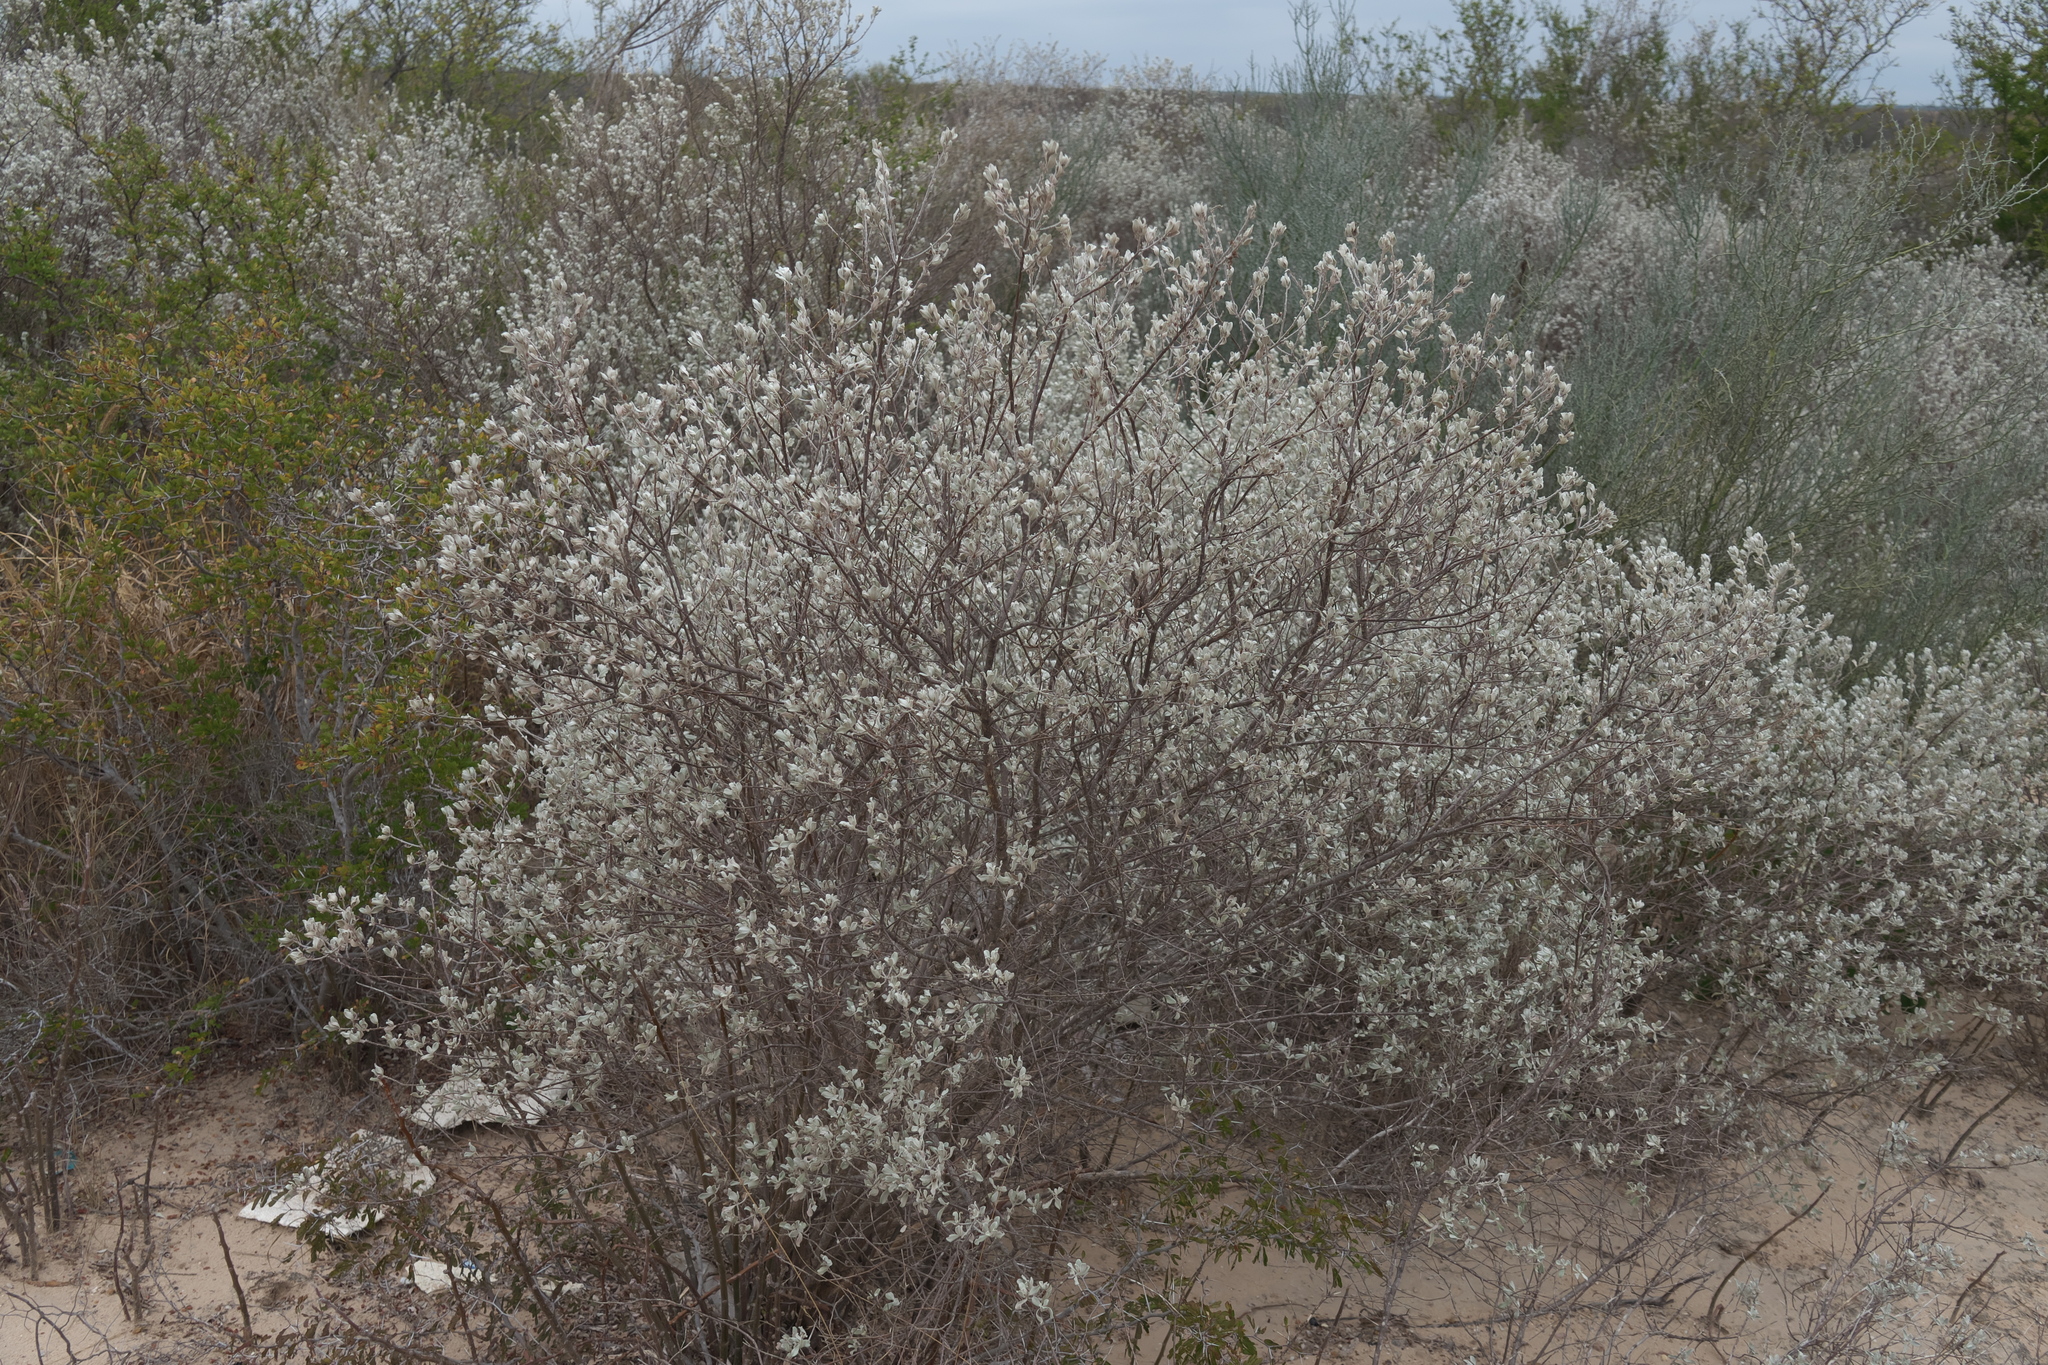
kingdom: Plantae
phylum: Tracheophyta
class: Magnoliopsida
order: Lamiales
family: Scrophulariaceae
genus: Leucophyllum
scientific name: Leucophyllum frutescens
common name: Texas silverleaf
